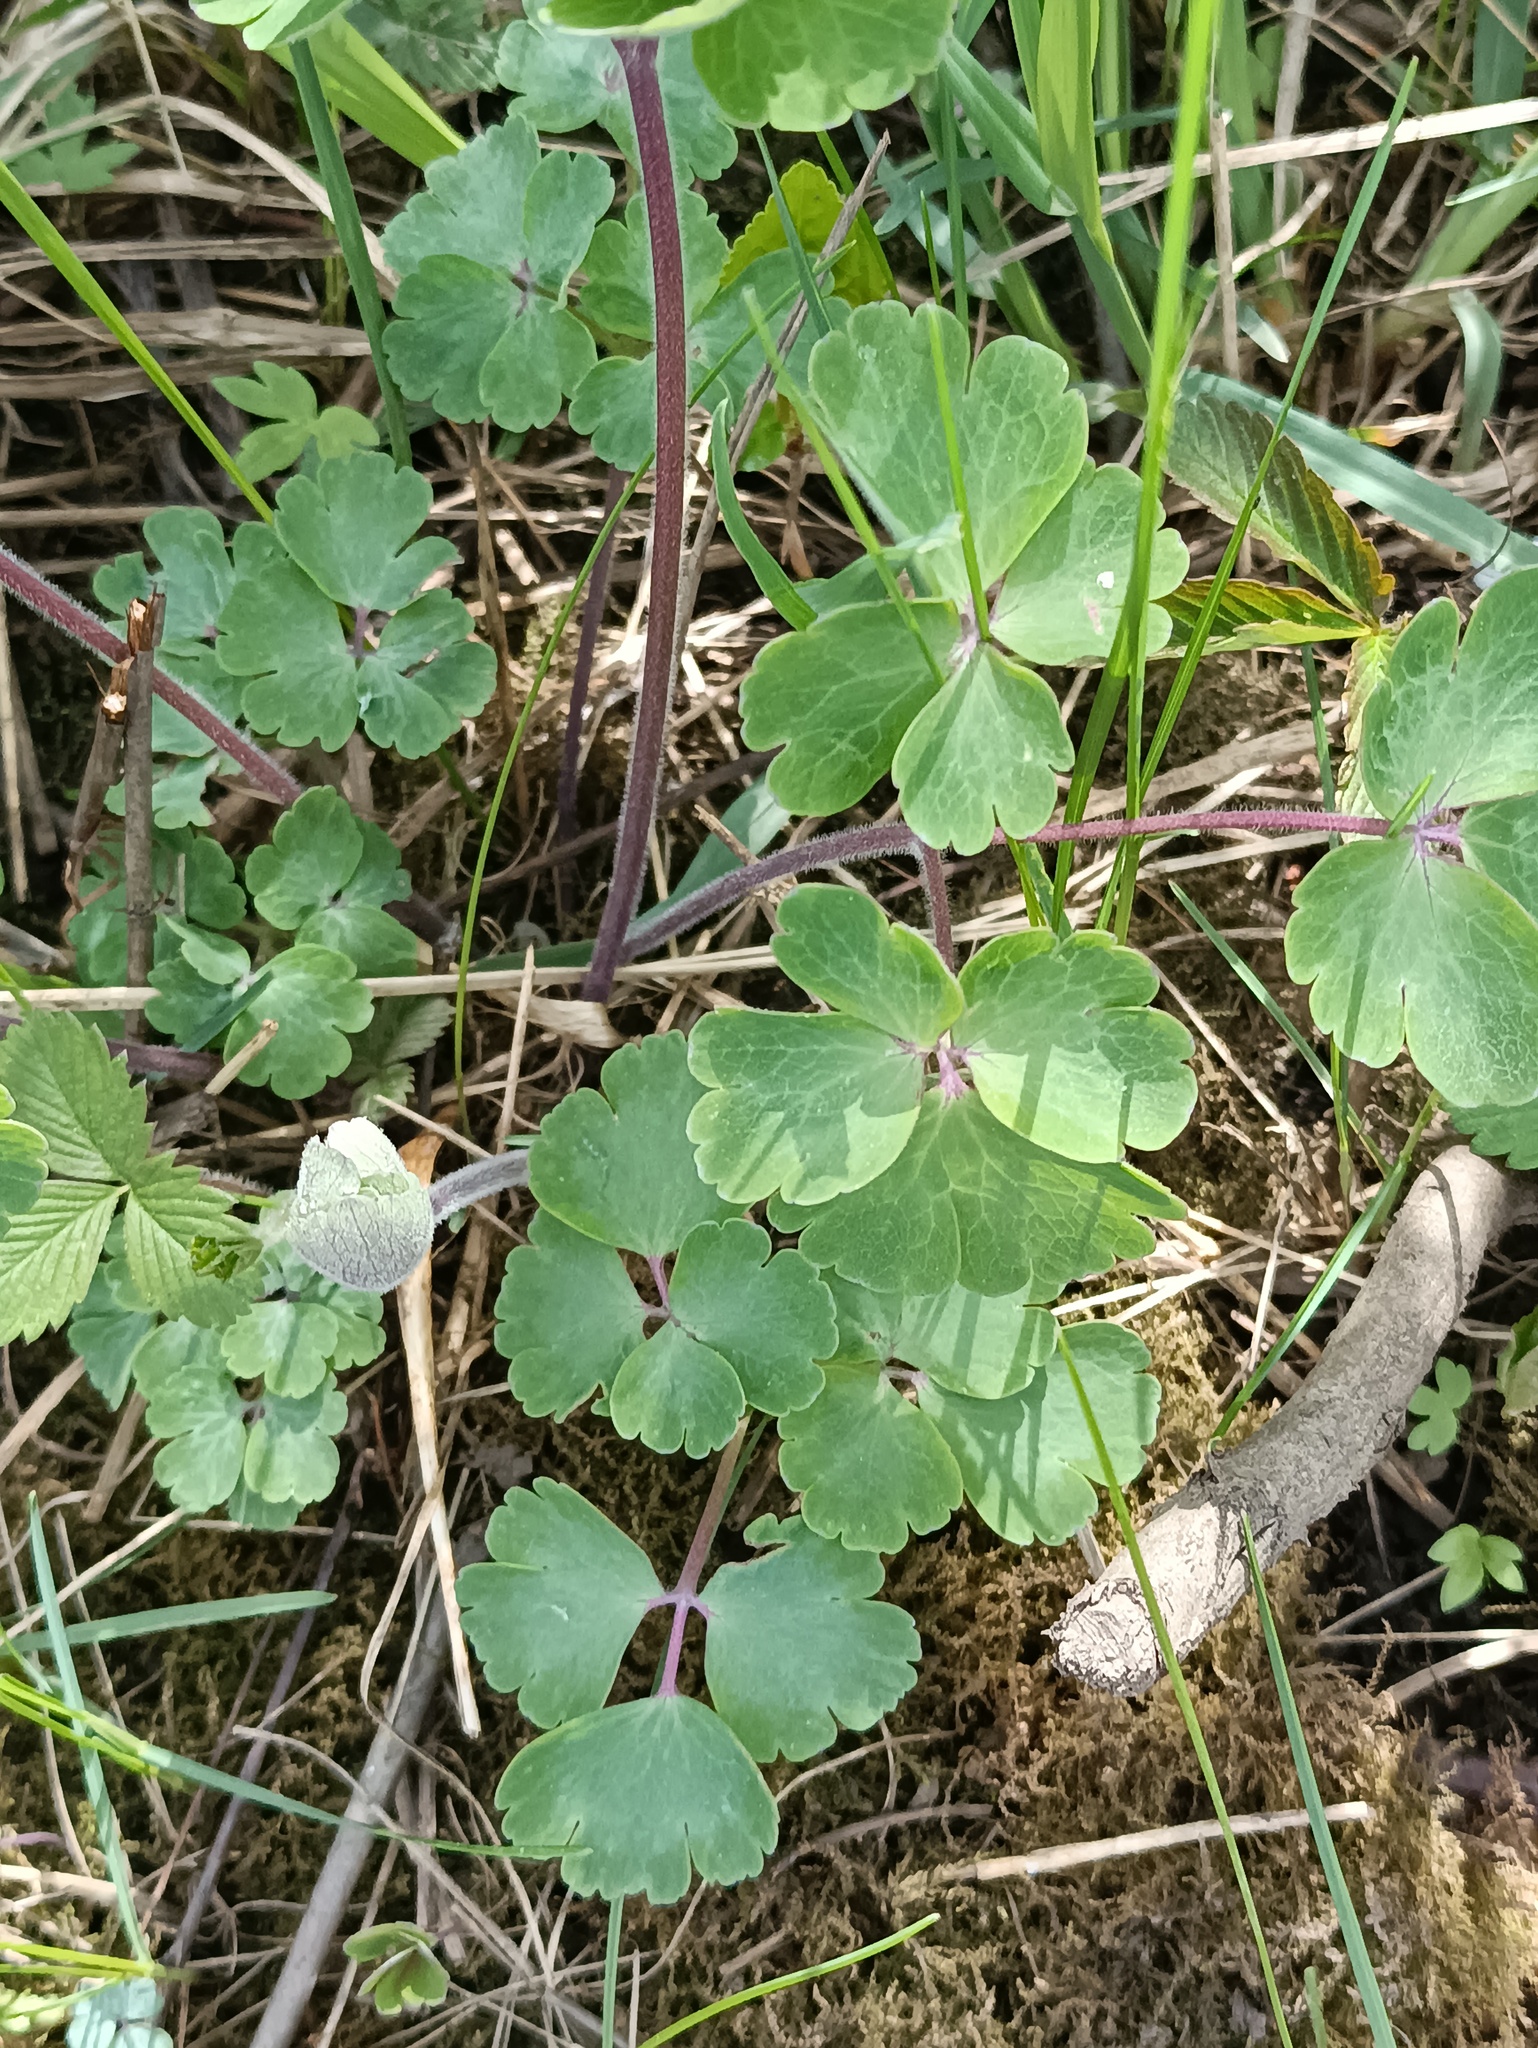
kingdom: Plantae
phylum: Tracheophyta
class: Magnoliopsida
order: Ranunculales
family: Ranunculaceae
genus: Aquilegia
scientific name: Aquilegia vulgaris
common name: Columbine
